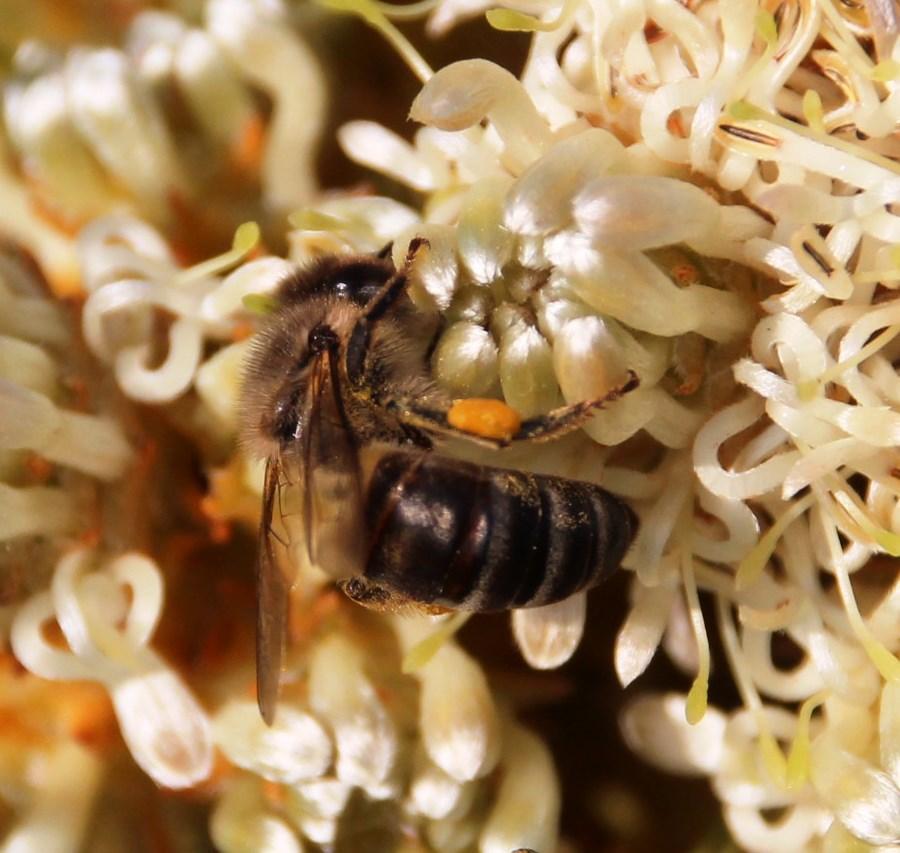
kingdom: Animalia
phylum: Arthropoda
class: Insecta
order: Hymenoptera
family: Apidae
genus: Apis
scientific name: Apis mellifera
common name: Honey bee
